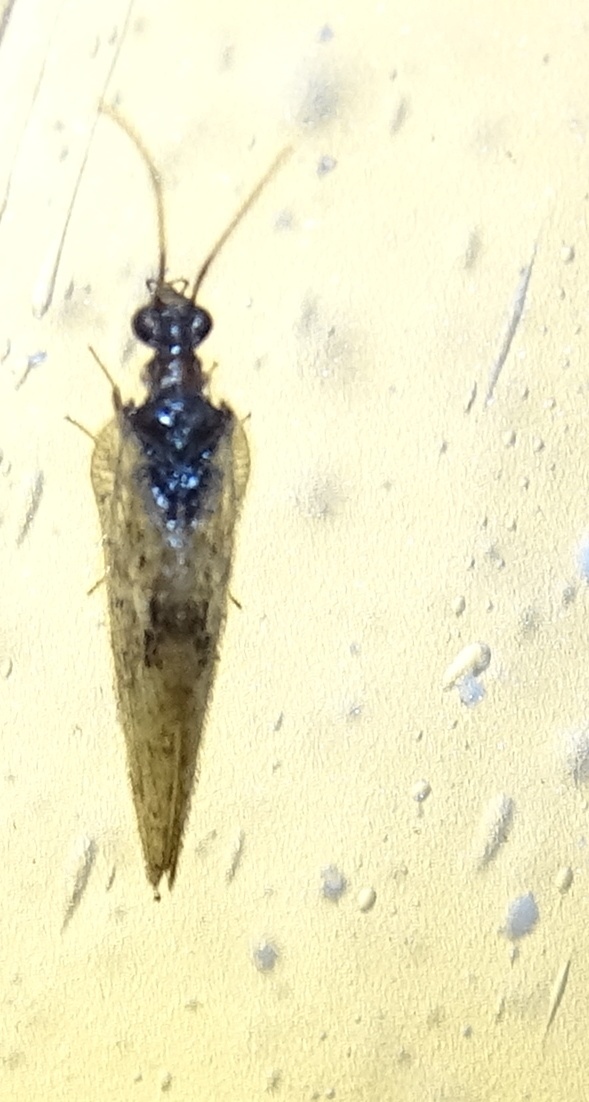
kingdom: Animalia
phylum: Arthropoda
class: Insecta
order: Neuroptera
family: Hemerobiidae
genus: Sympherobius
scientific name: Sympherobius barberi
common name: Brown lacewing
